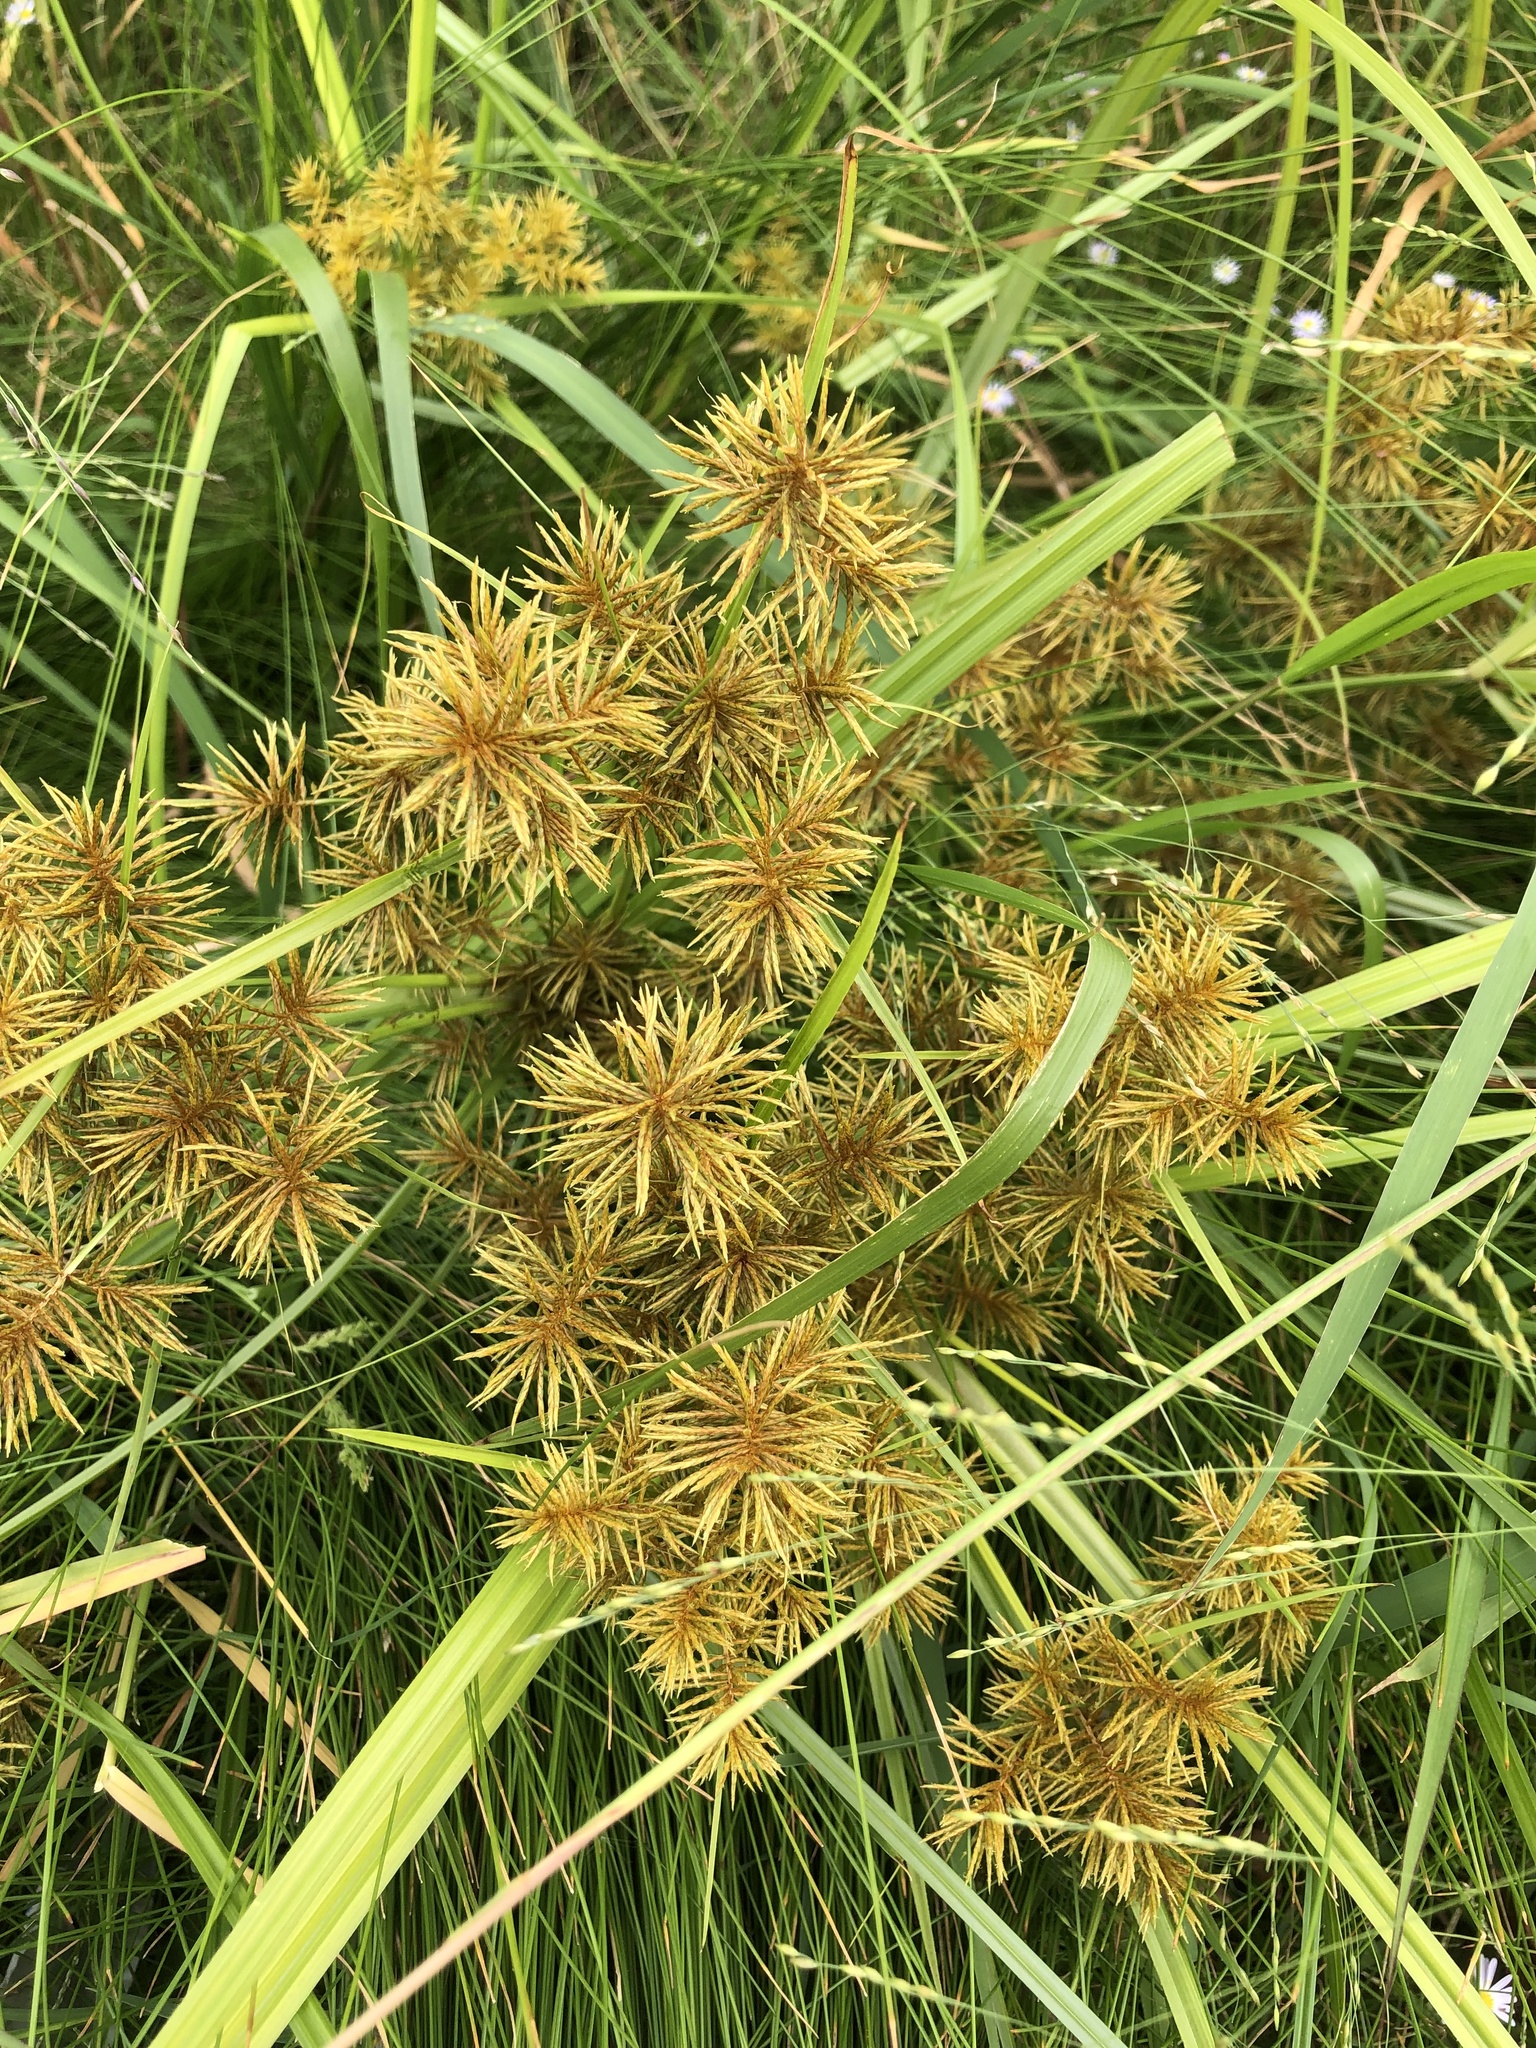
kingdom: Plantae
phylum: Tracheophyta
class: Liliopsida
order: Poales
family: Cyperaceae
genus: Cyperus
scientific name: Cyperus odoratus
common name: Fragrant flatsedge
